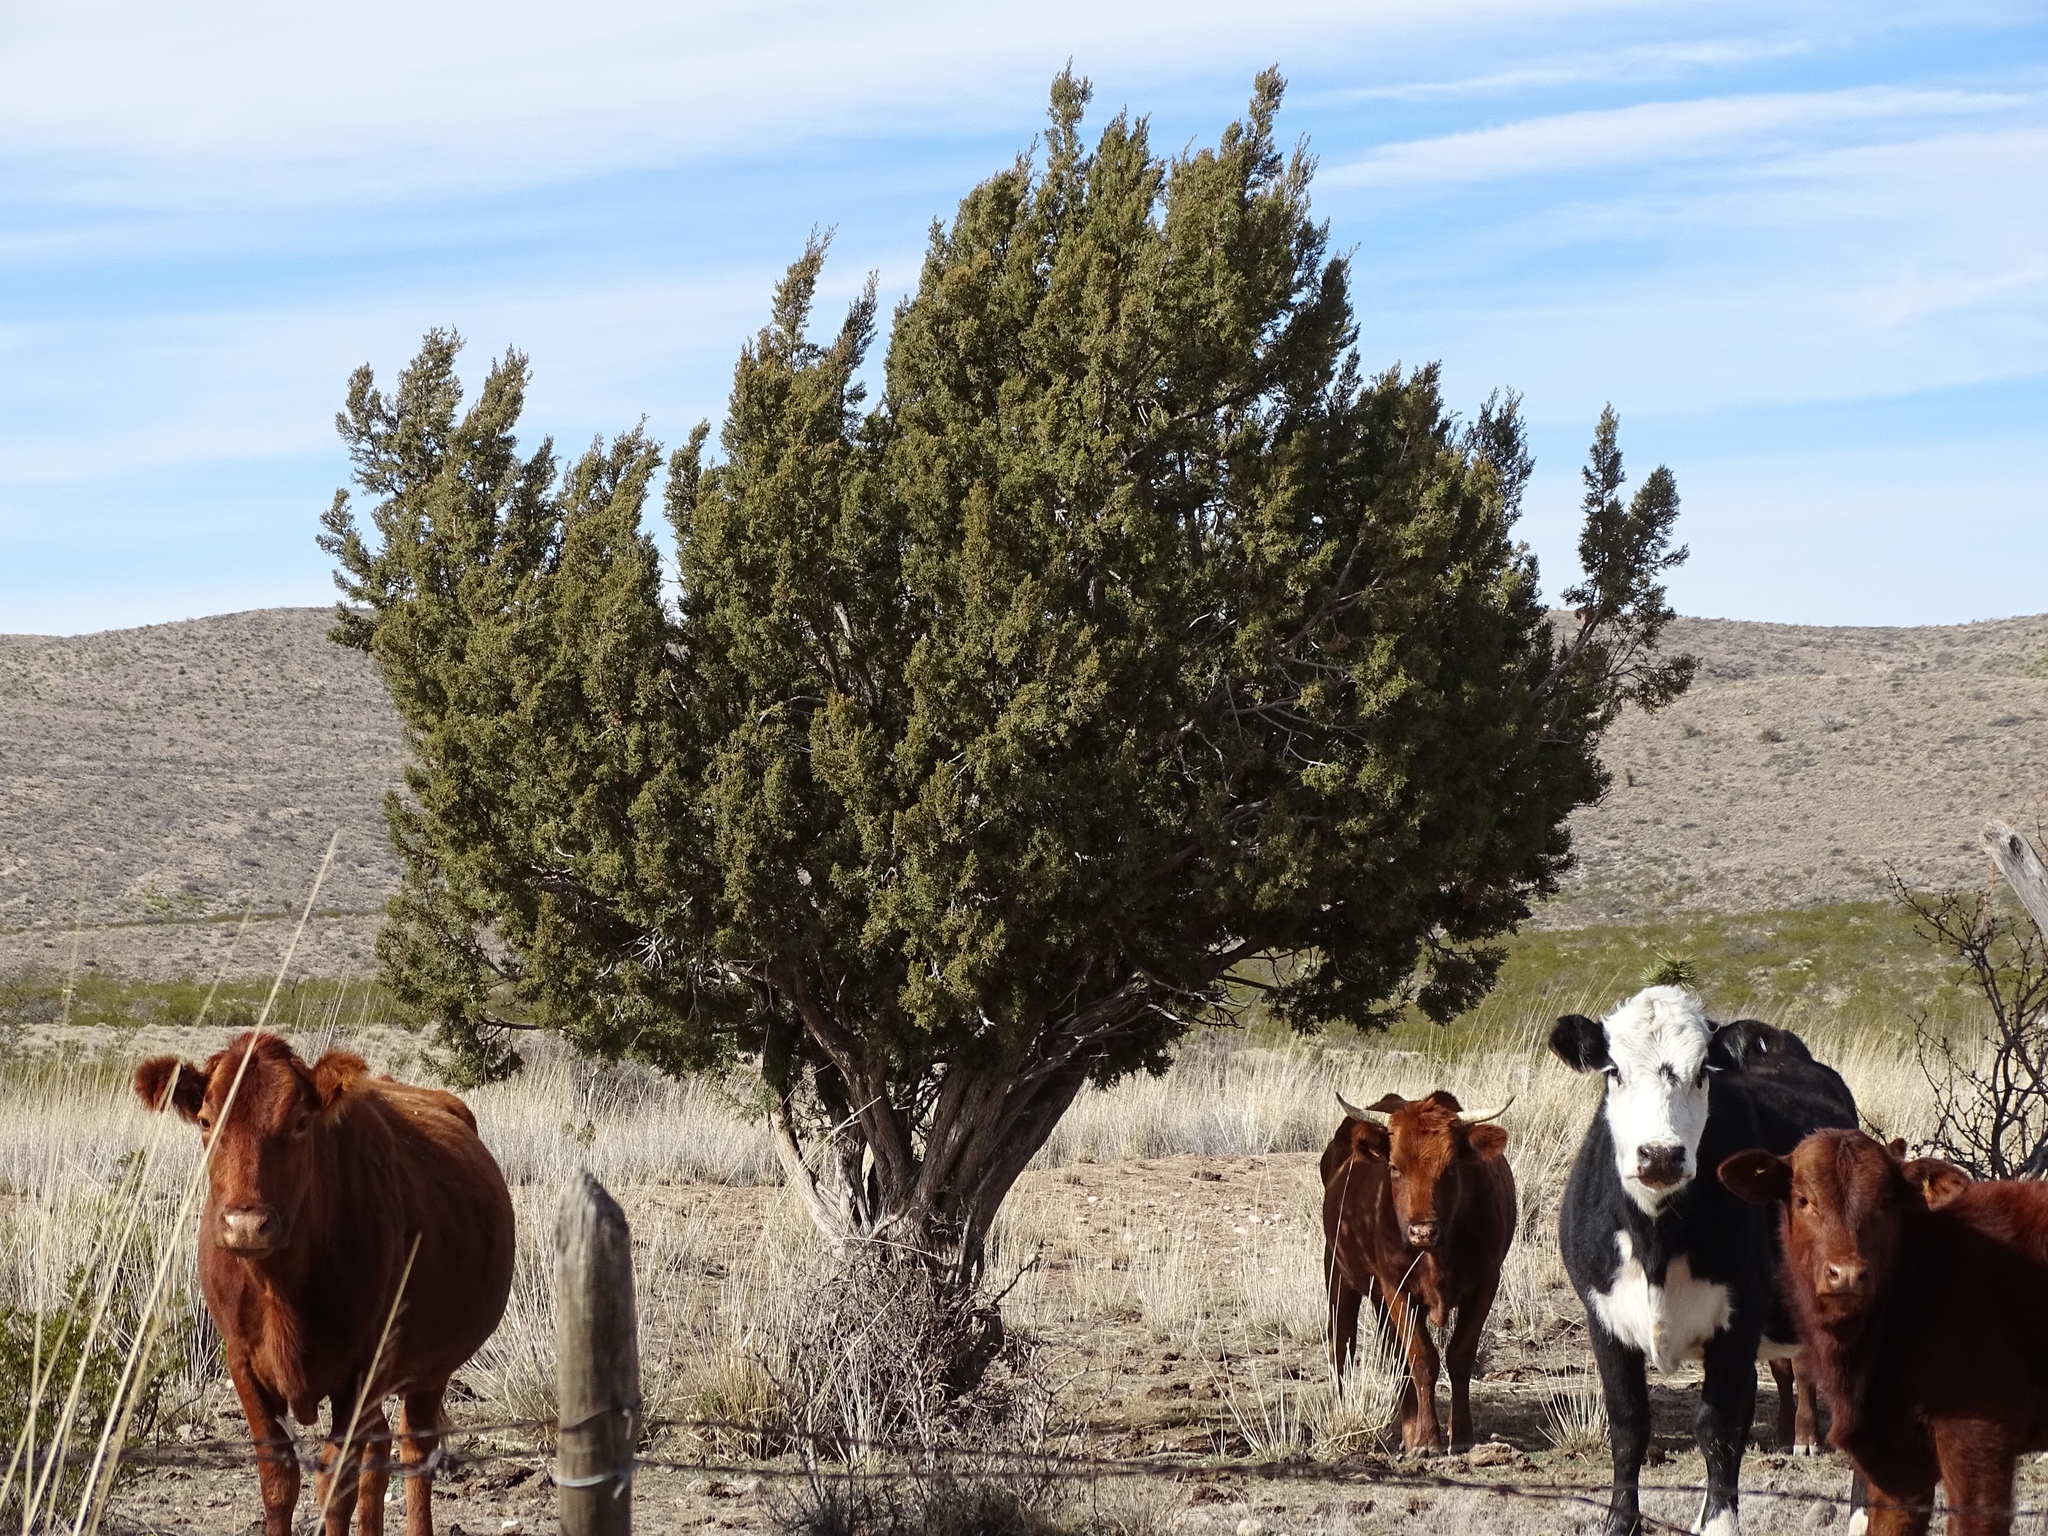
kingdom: Plantae
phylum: Tracheophyta
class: Pinopsida
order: Pinales
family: Cupressaceae
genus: Juniperus
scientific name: Juniperus monosperma
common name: One-seed juniper
